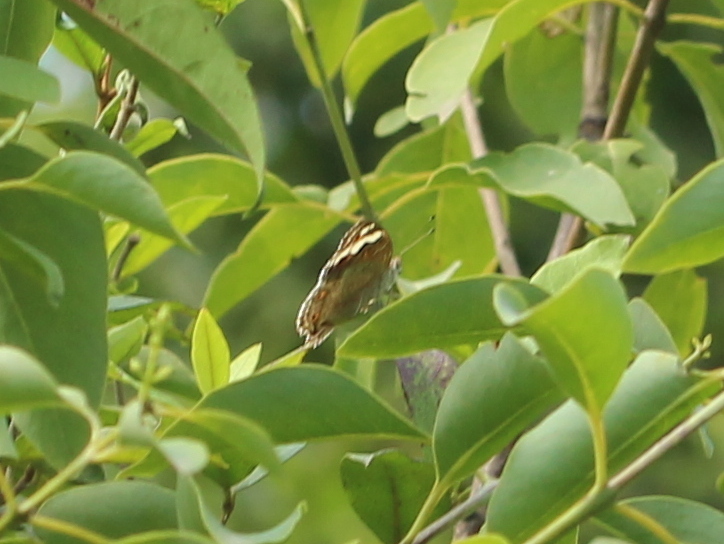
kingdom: Animalia
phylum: Arthropoda
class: Insecta
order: Lepidoptera
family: Nymphalidae
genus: Junonia
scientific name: Junonia orithya
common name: Blue pansy
